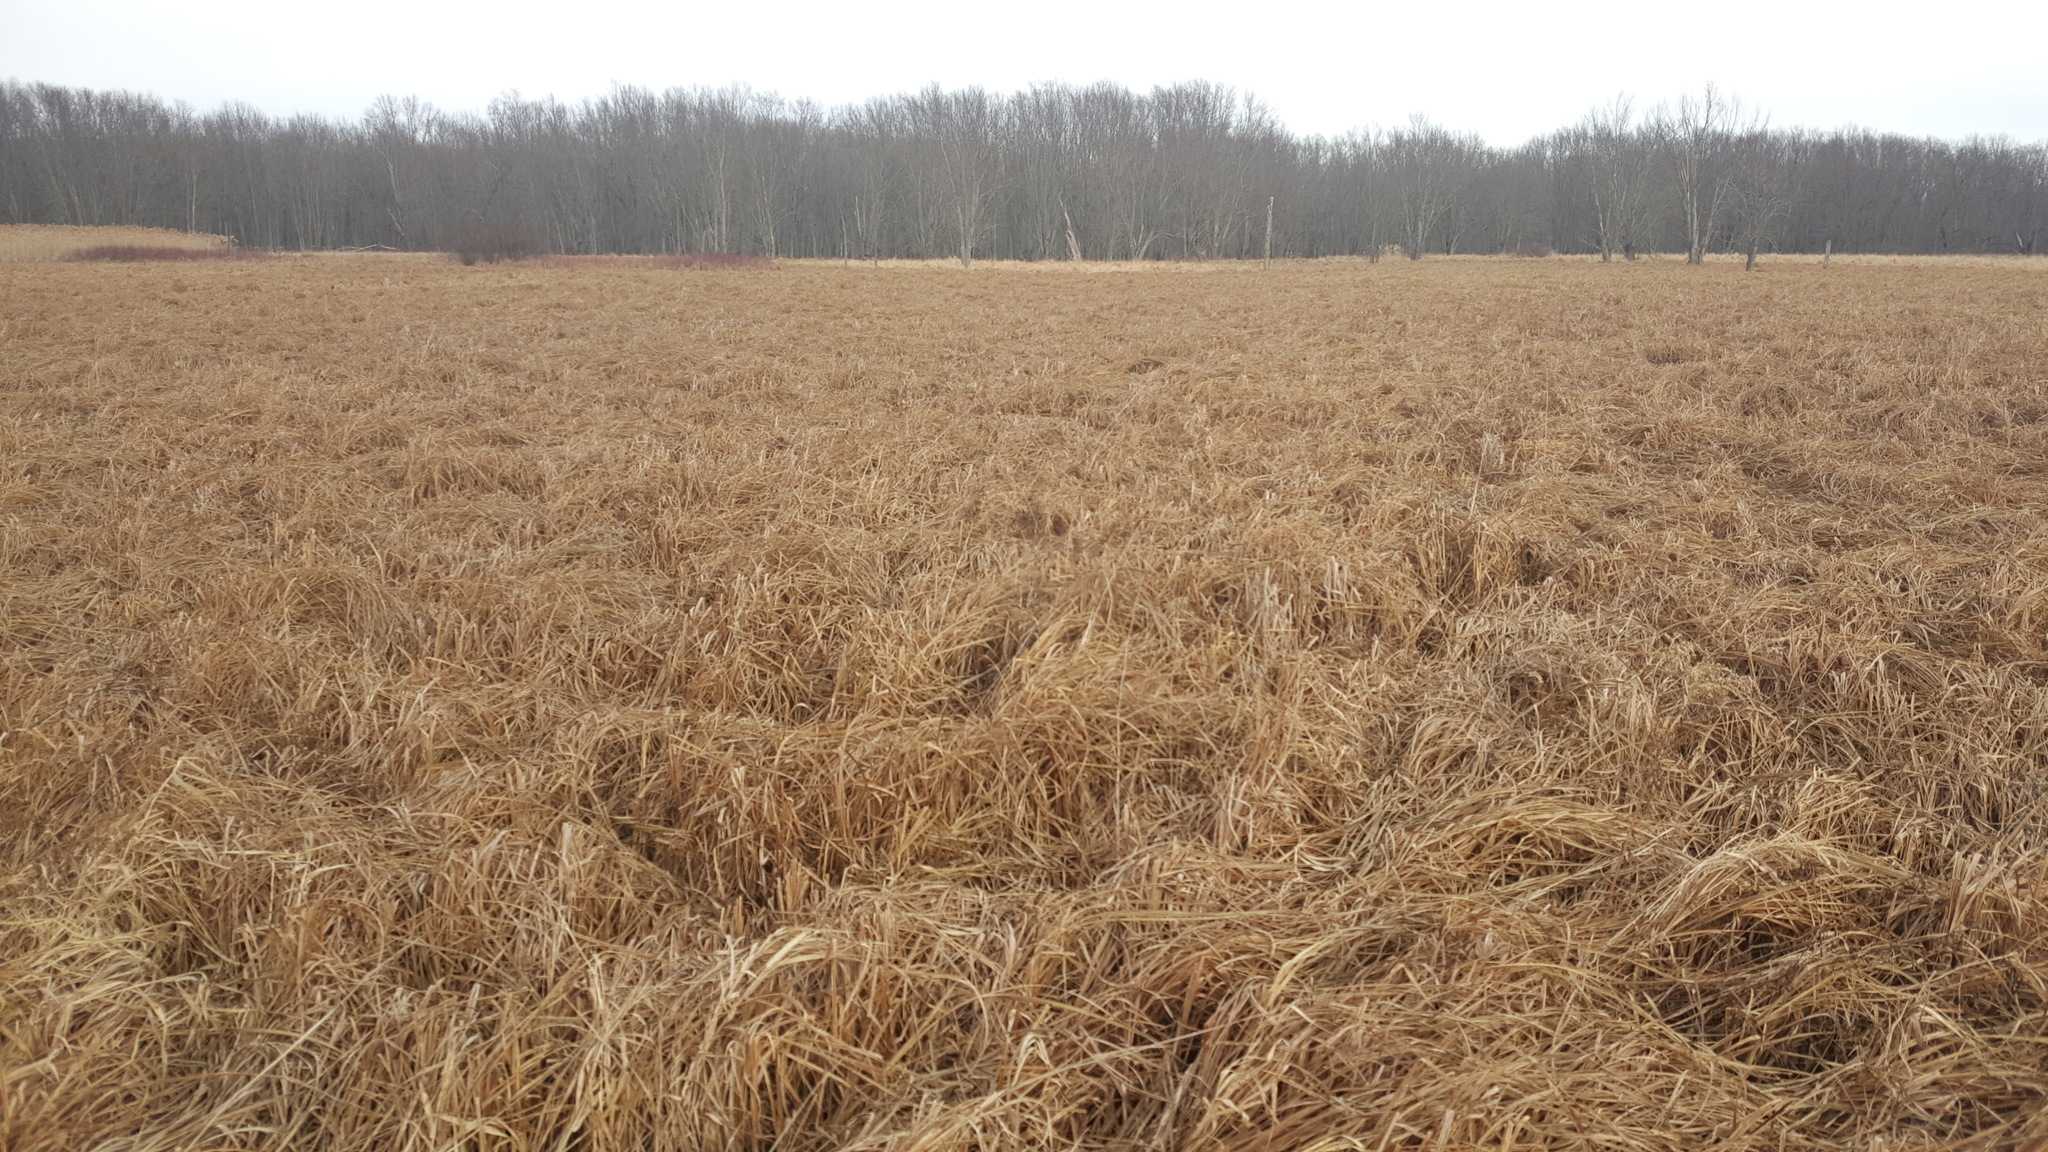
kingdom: Plantae
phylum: Tracheophyta
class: Liliopsida
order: Poales
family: Cyperaceae
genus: Carex
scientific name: Carex utriculata
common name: Beaked sedge
